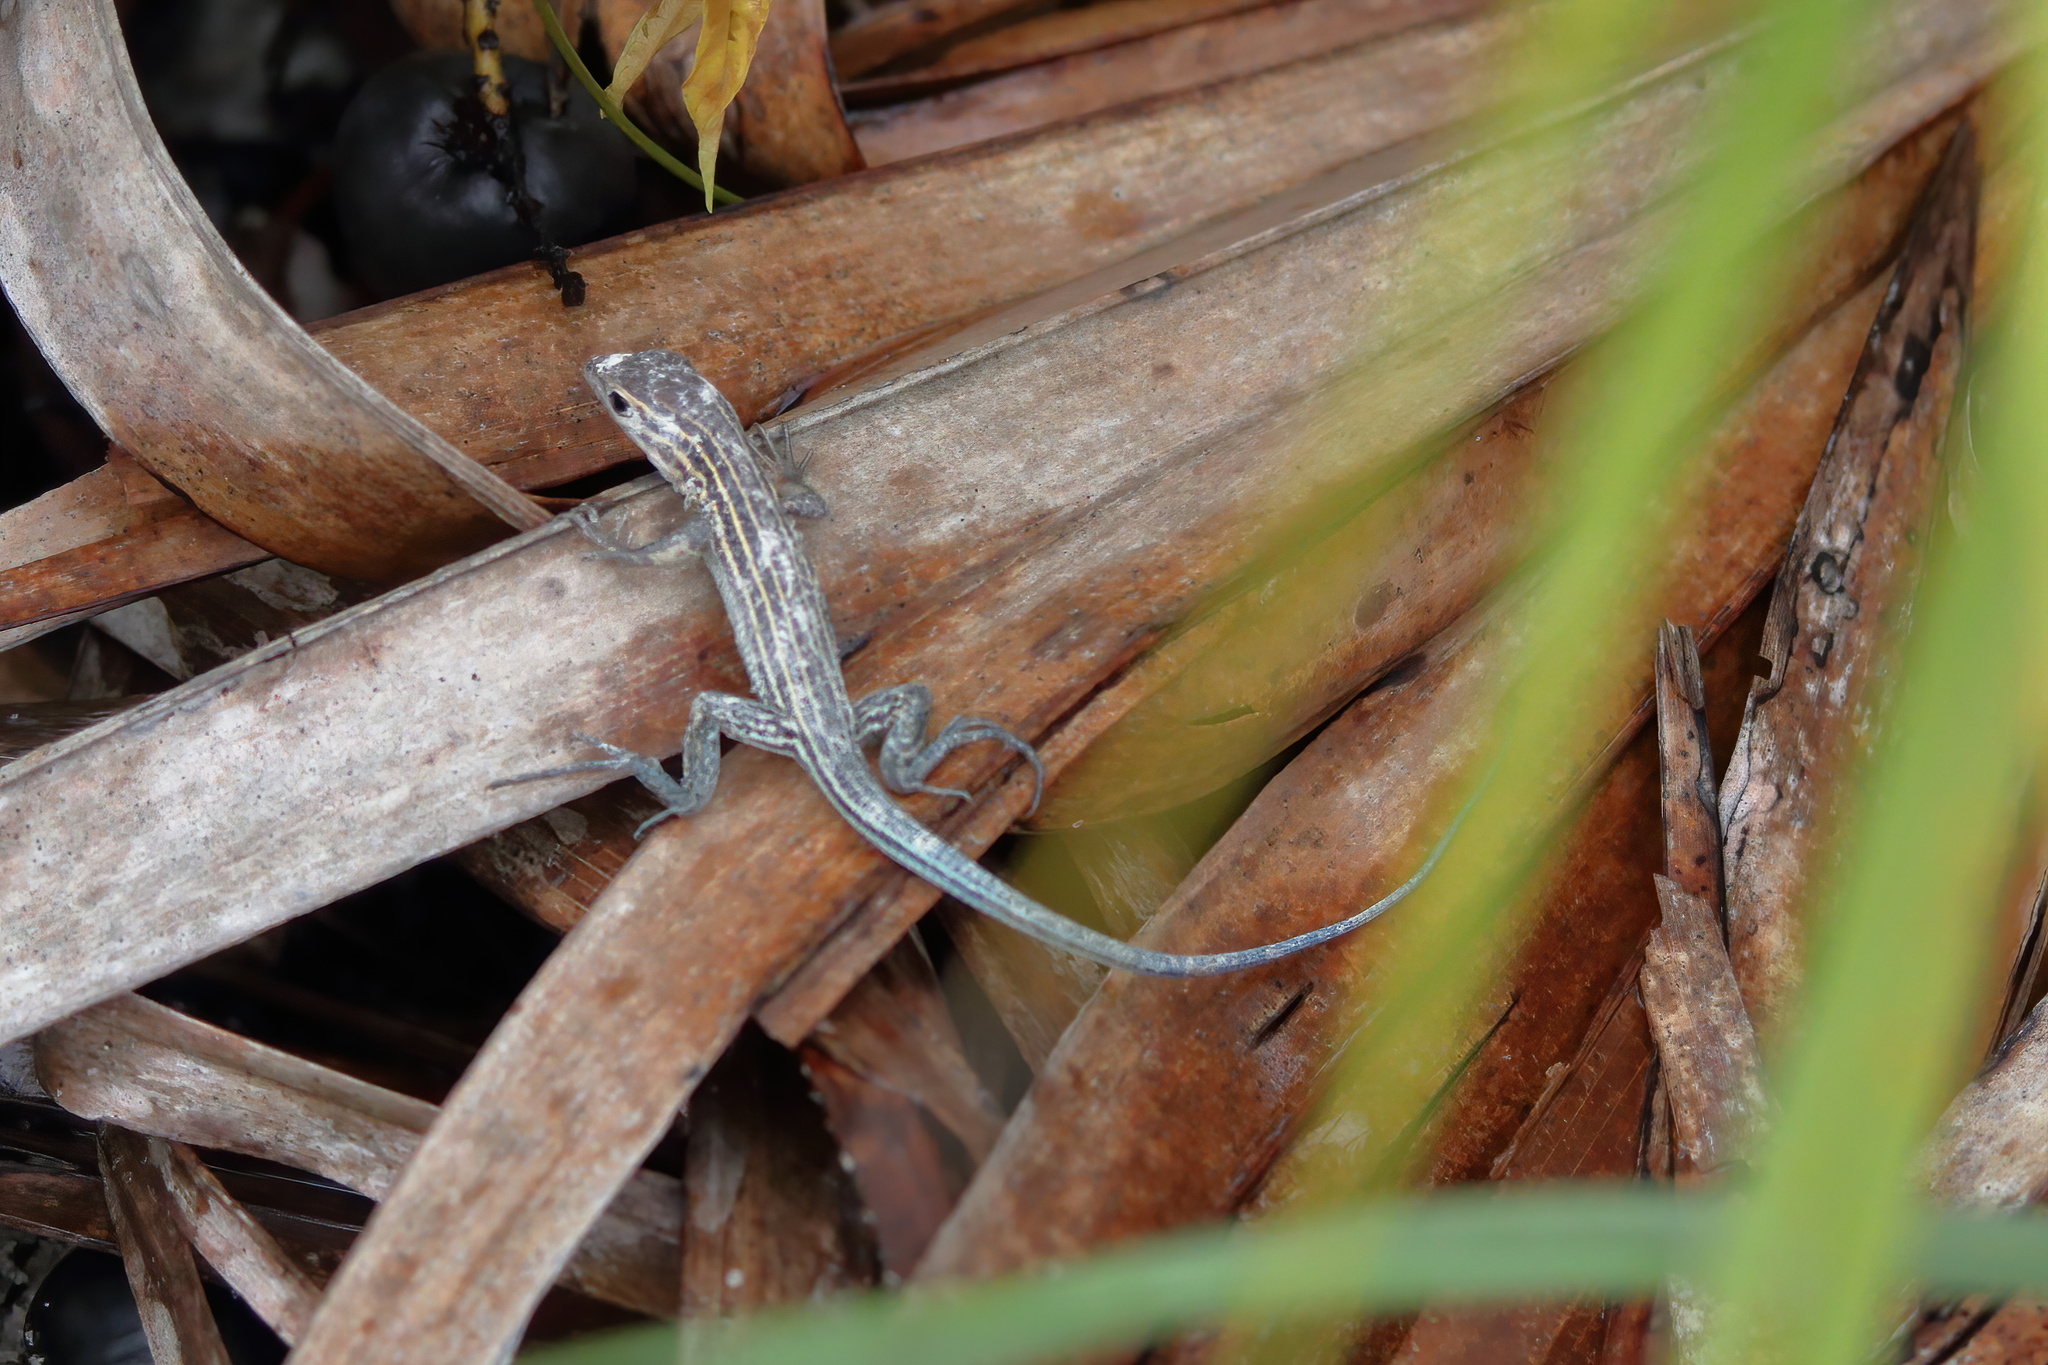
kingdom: Animalia
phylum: Chordata
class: Squamata
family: Teiidae
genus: Aspidoscelis
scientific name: Aspidoscelis sexlineatus
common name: Six-lined racerunner
